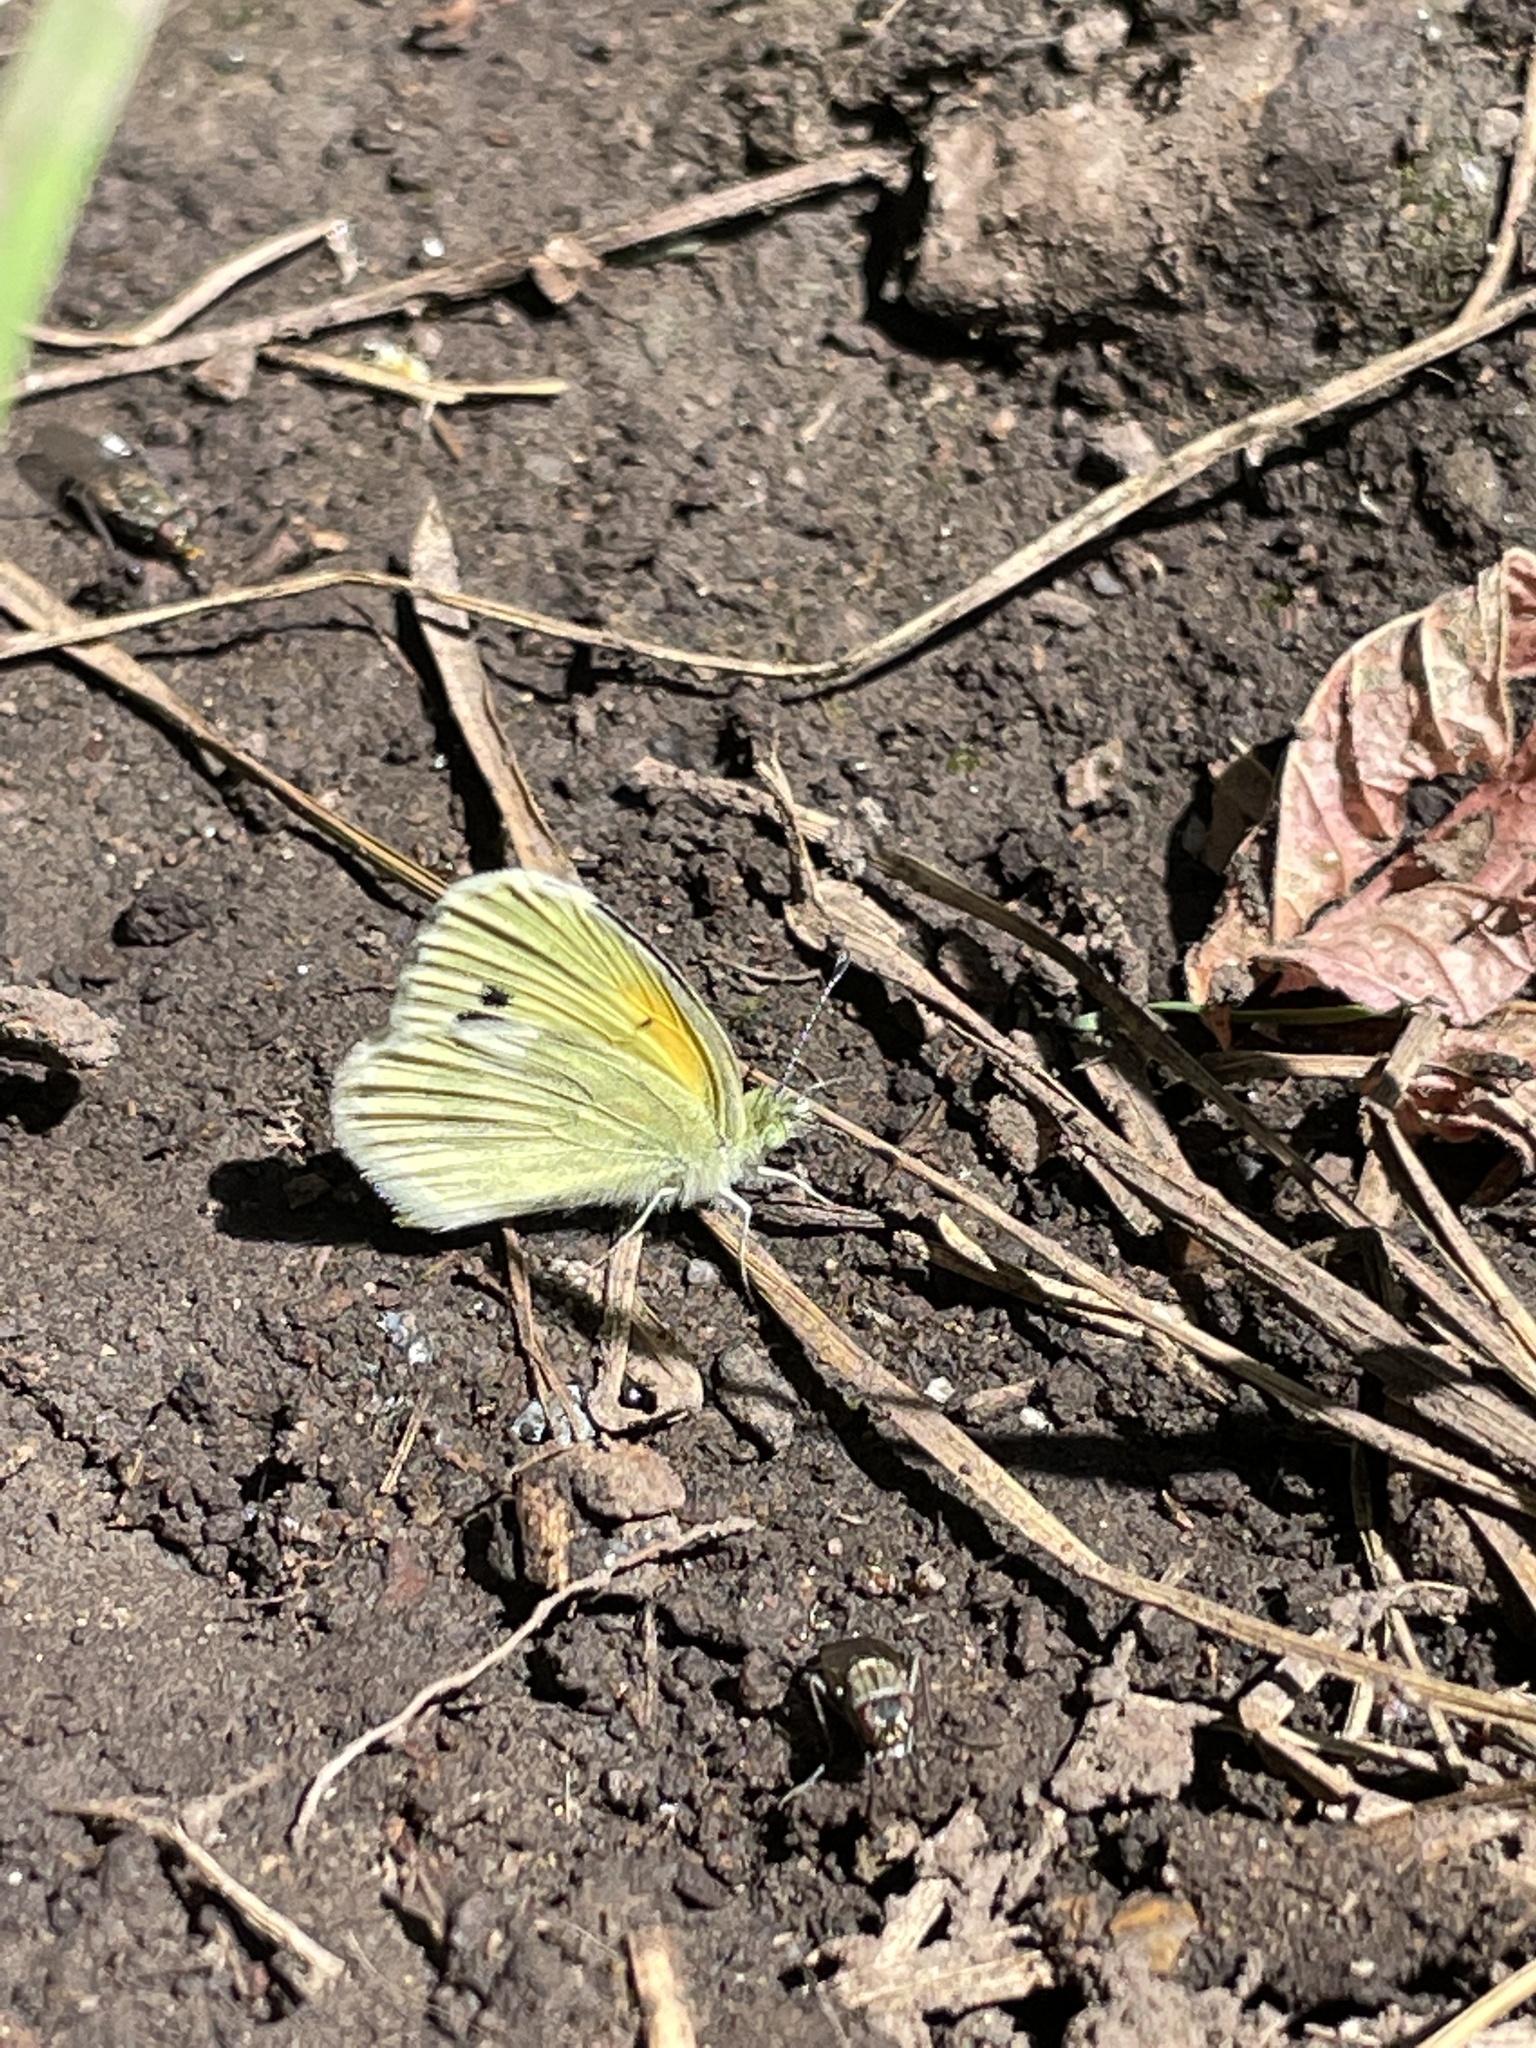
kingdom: Animalia
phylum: Arthropoda
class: Insecta
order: Lepidoptera
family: Pieridae
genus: Nathalis
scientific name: Nathalis iole
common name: Dainty sulphur
